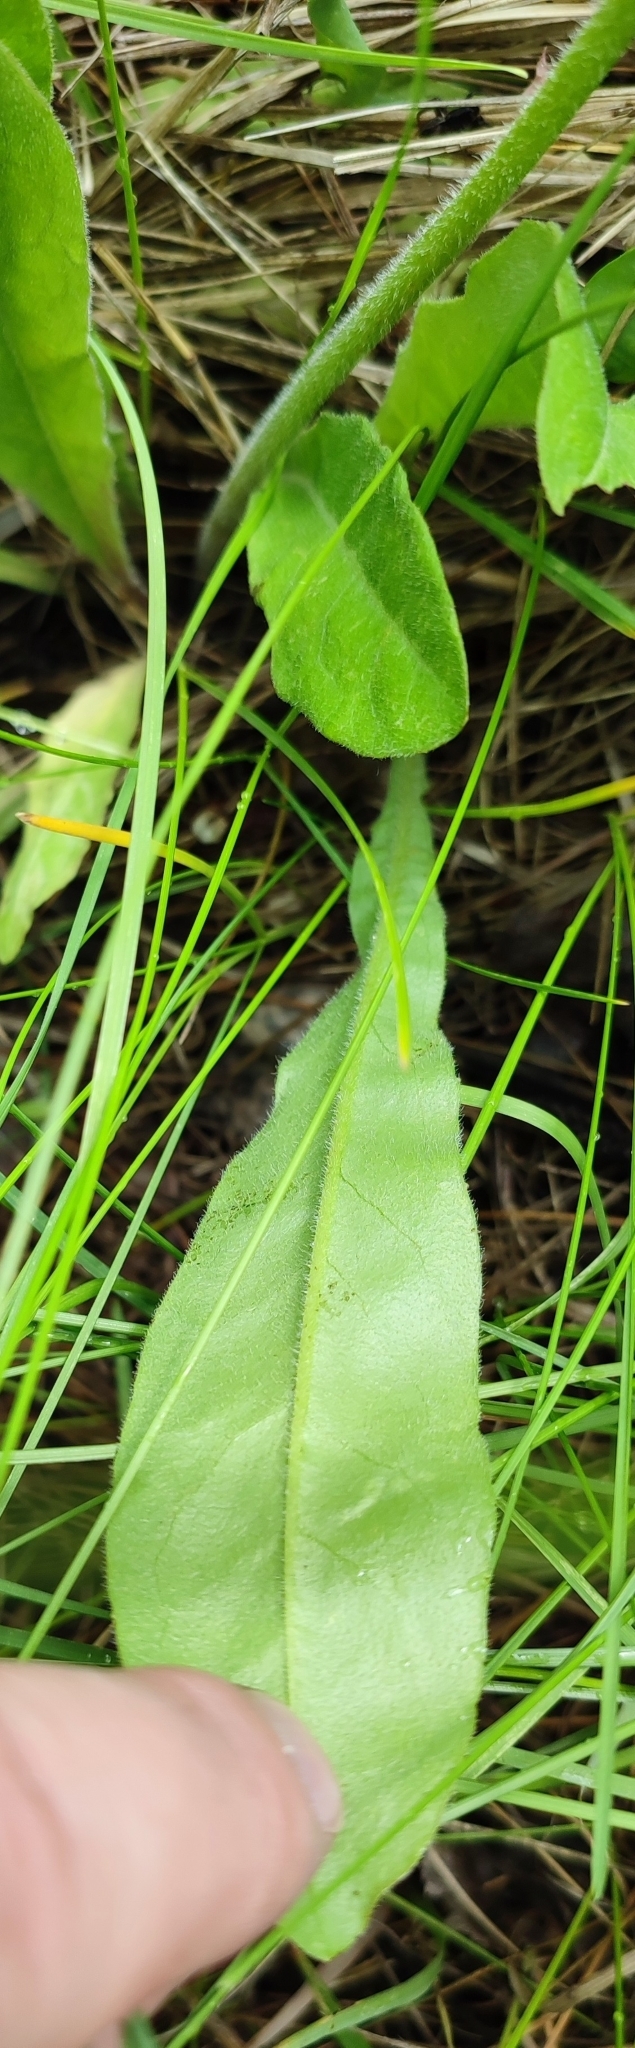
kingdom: Plantae
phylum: Tracheophyta
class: Magnoliopsida
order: Asterales
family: Asteraceae
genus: Crepis
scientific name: Crepis praemorsa
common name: Leafless hawk's-beard
